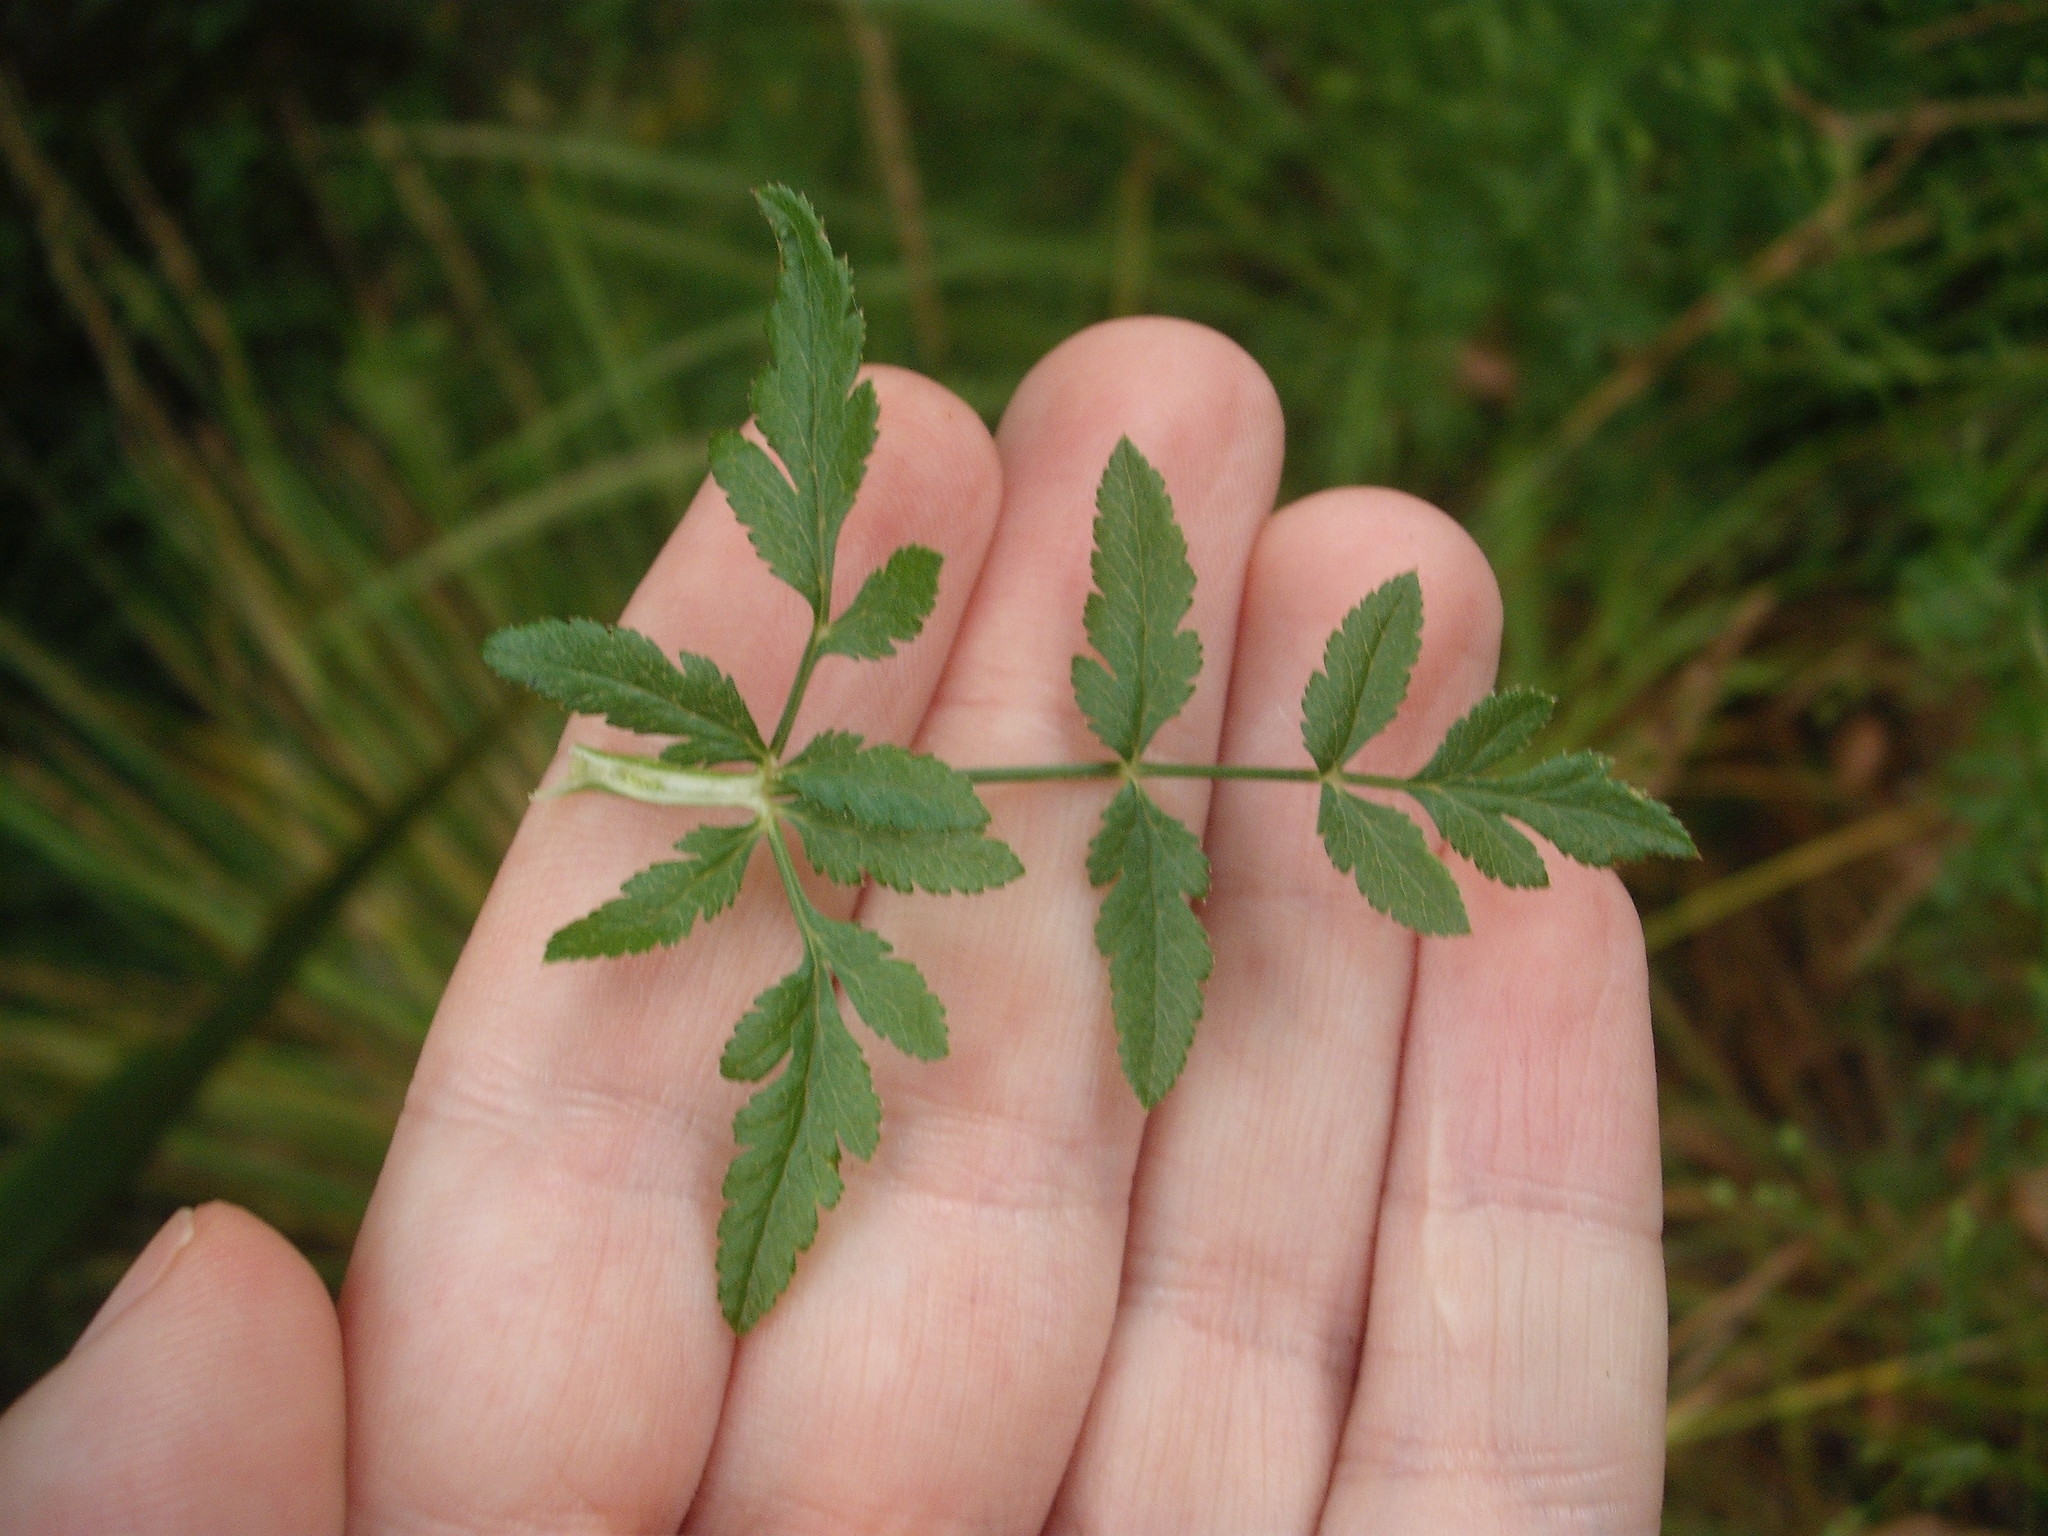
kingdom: Plantae
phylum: Tracheophyta
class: Magnoliopsida
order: Apiales
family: Apiaceae
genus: Sison
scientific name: Sison amomum
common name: Stone-parsley
